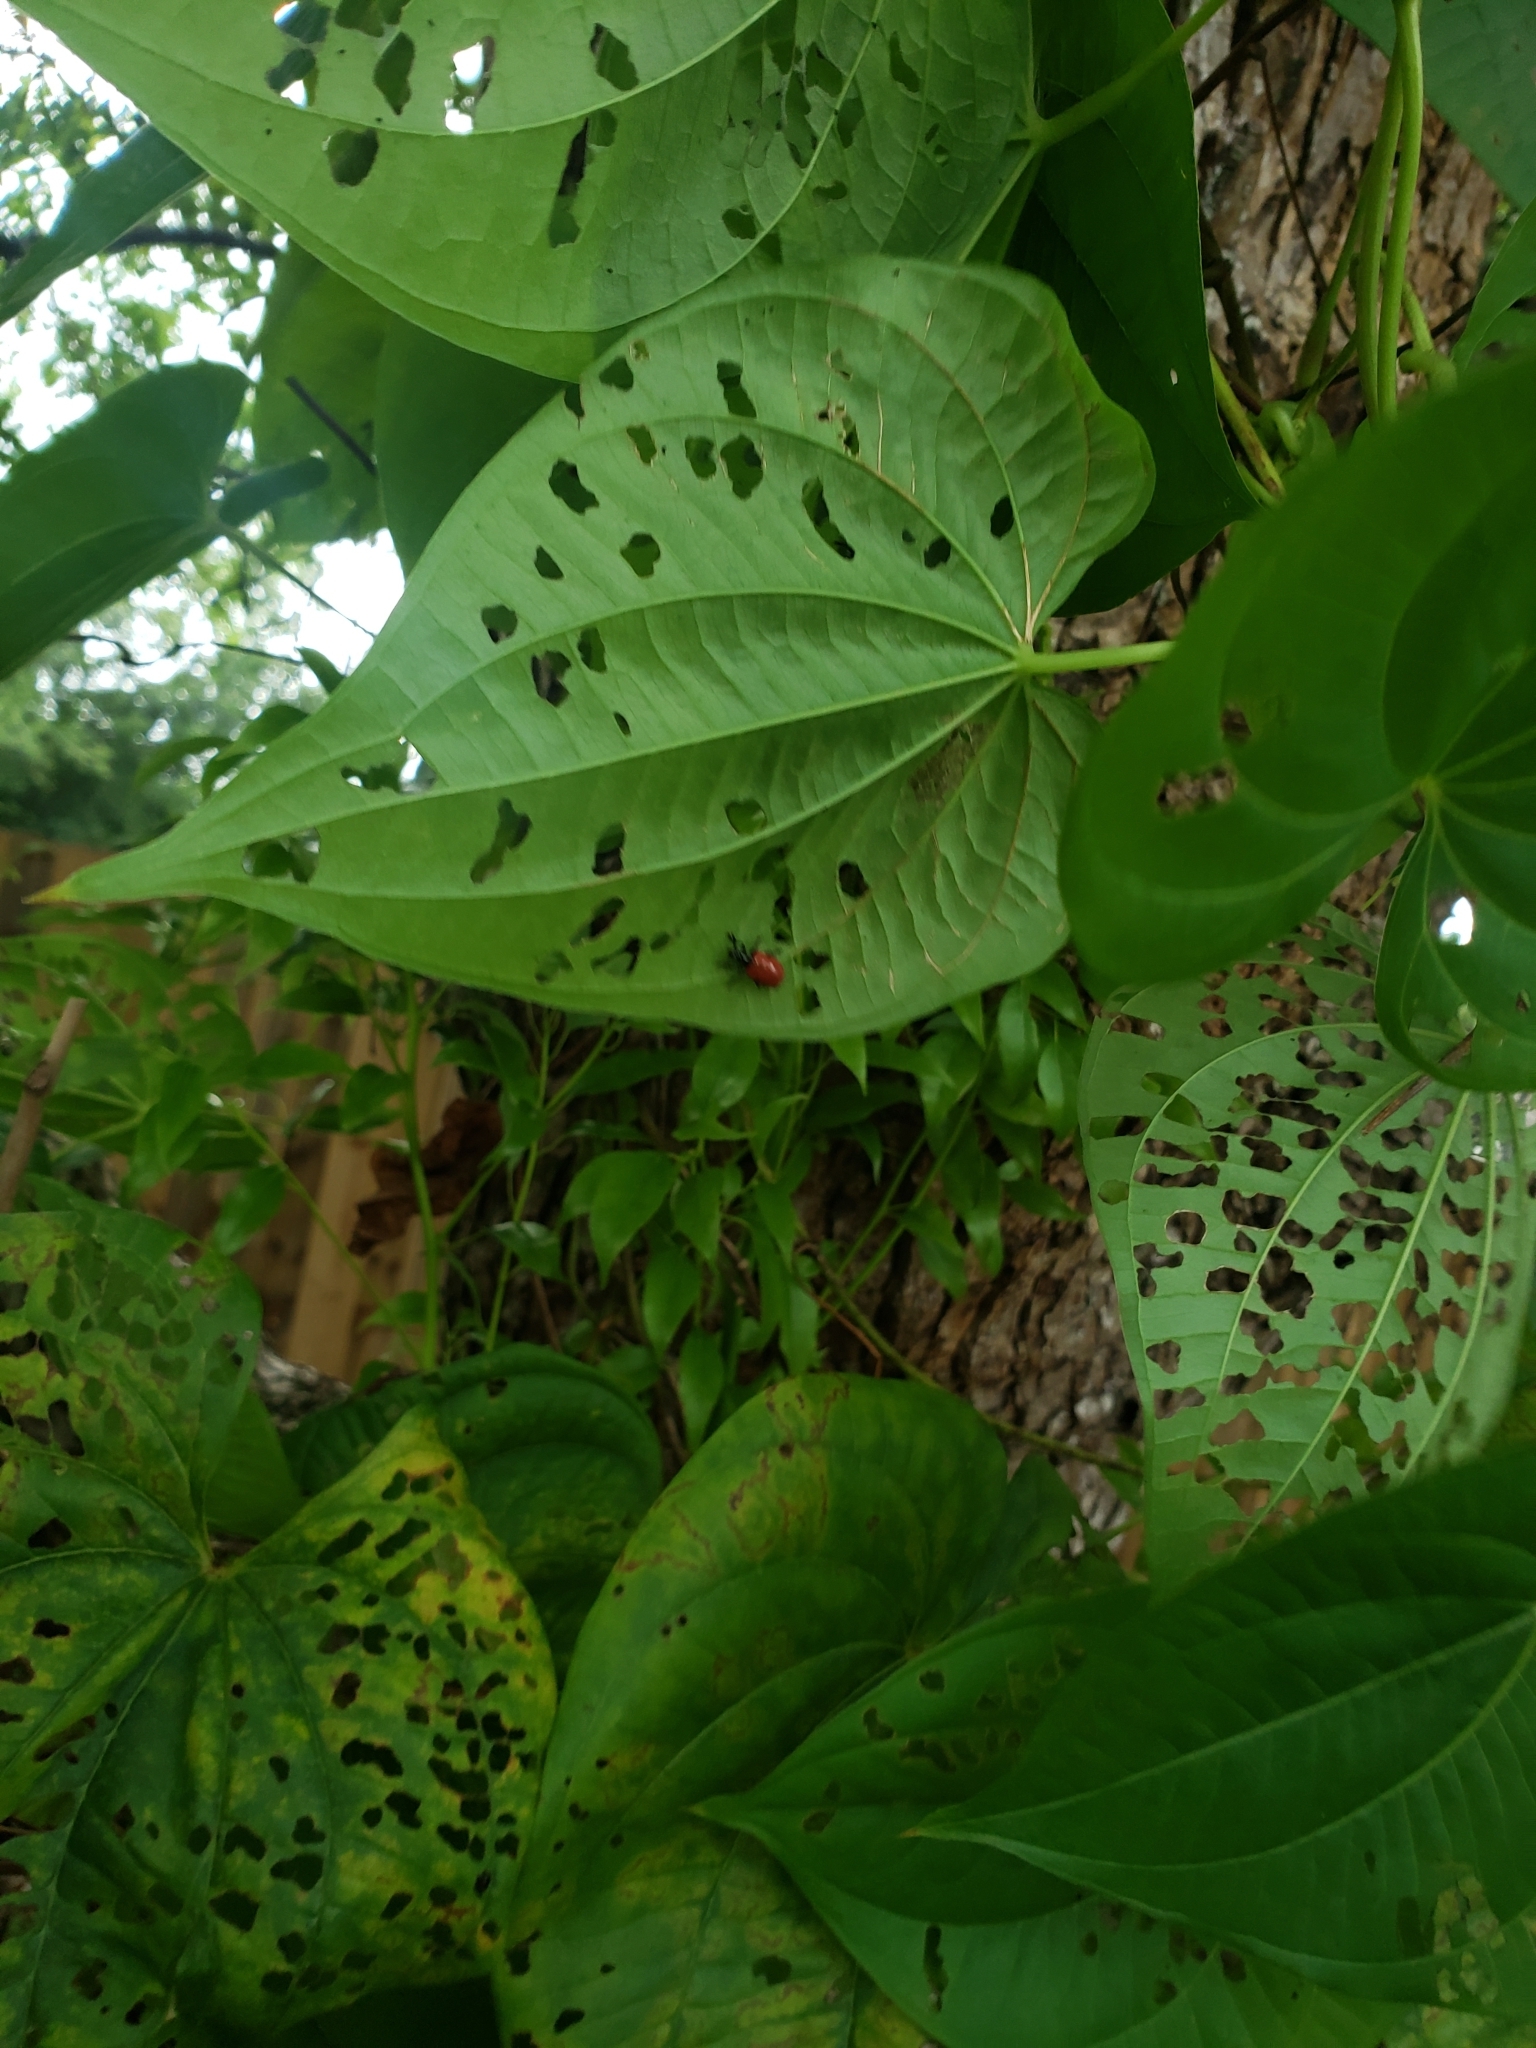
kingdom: Animalia
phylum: Arthropoda
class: Insecta
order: Coleoptera
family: Chrysomelidae
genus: Lilioceris
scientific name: Lilioceris cheni
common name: Leaf beetle
